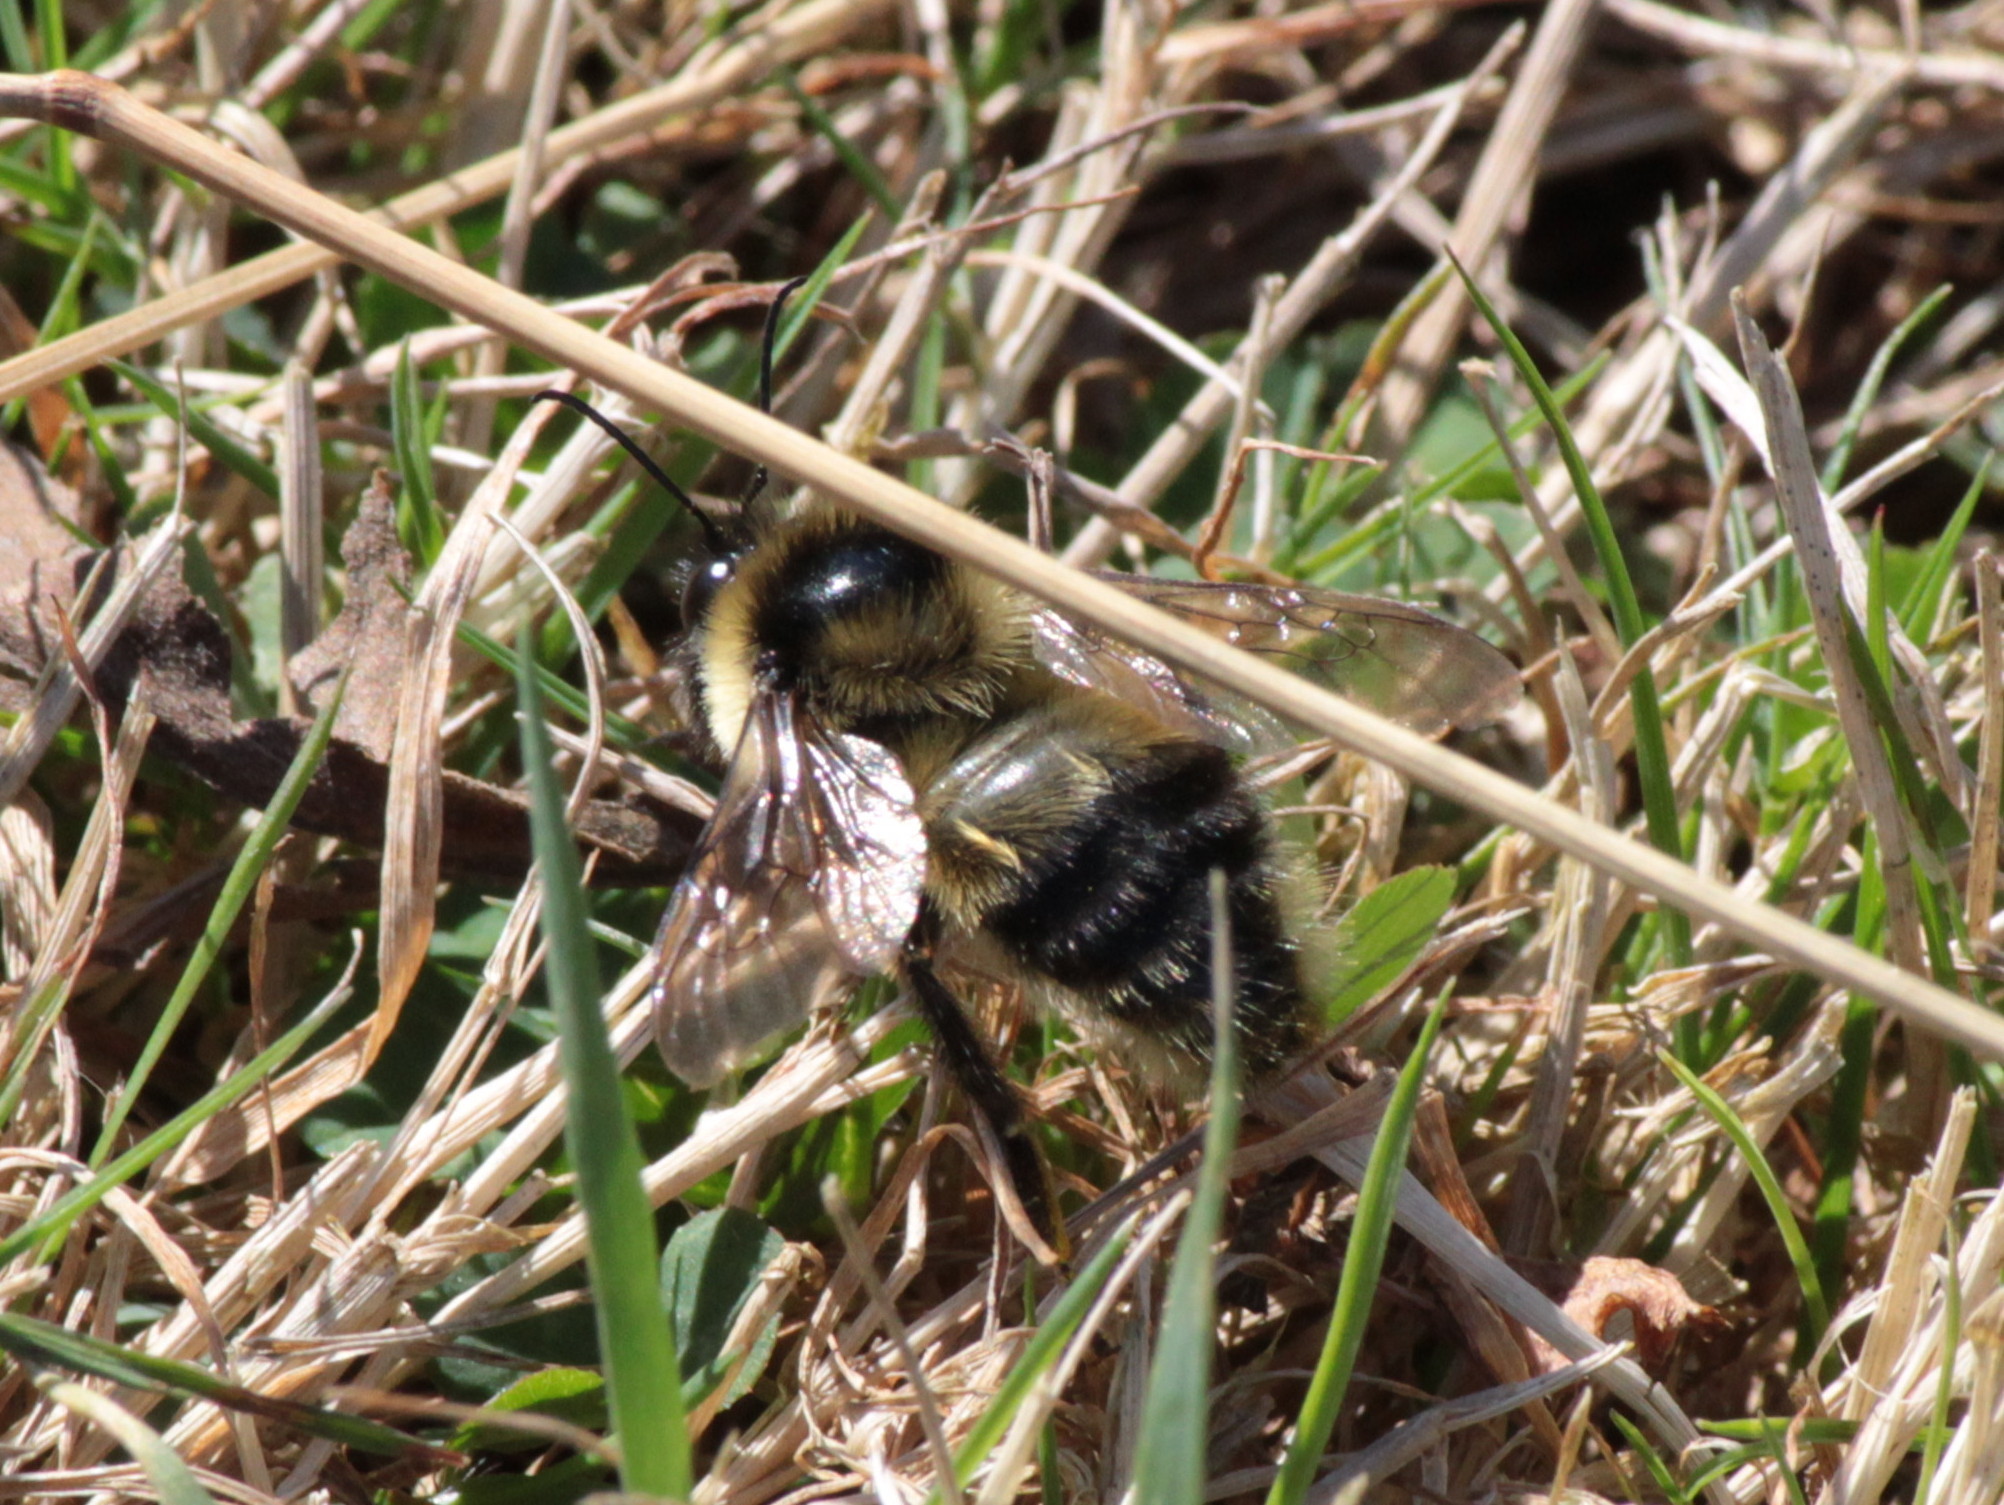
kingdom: Animalia
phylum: Arthropoda
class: Insecta
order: Hymenoptera
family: Apidae
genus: Bombus
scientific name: Bombus rufocinctus
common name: Red-belted bumble bee
